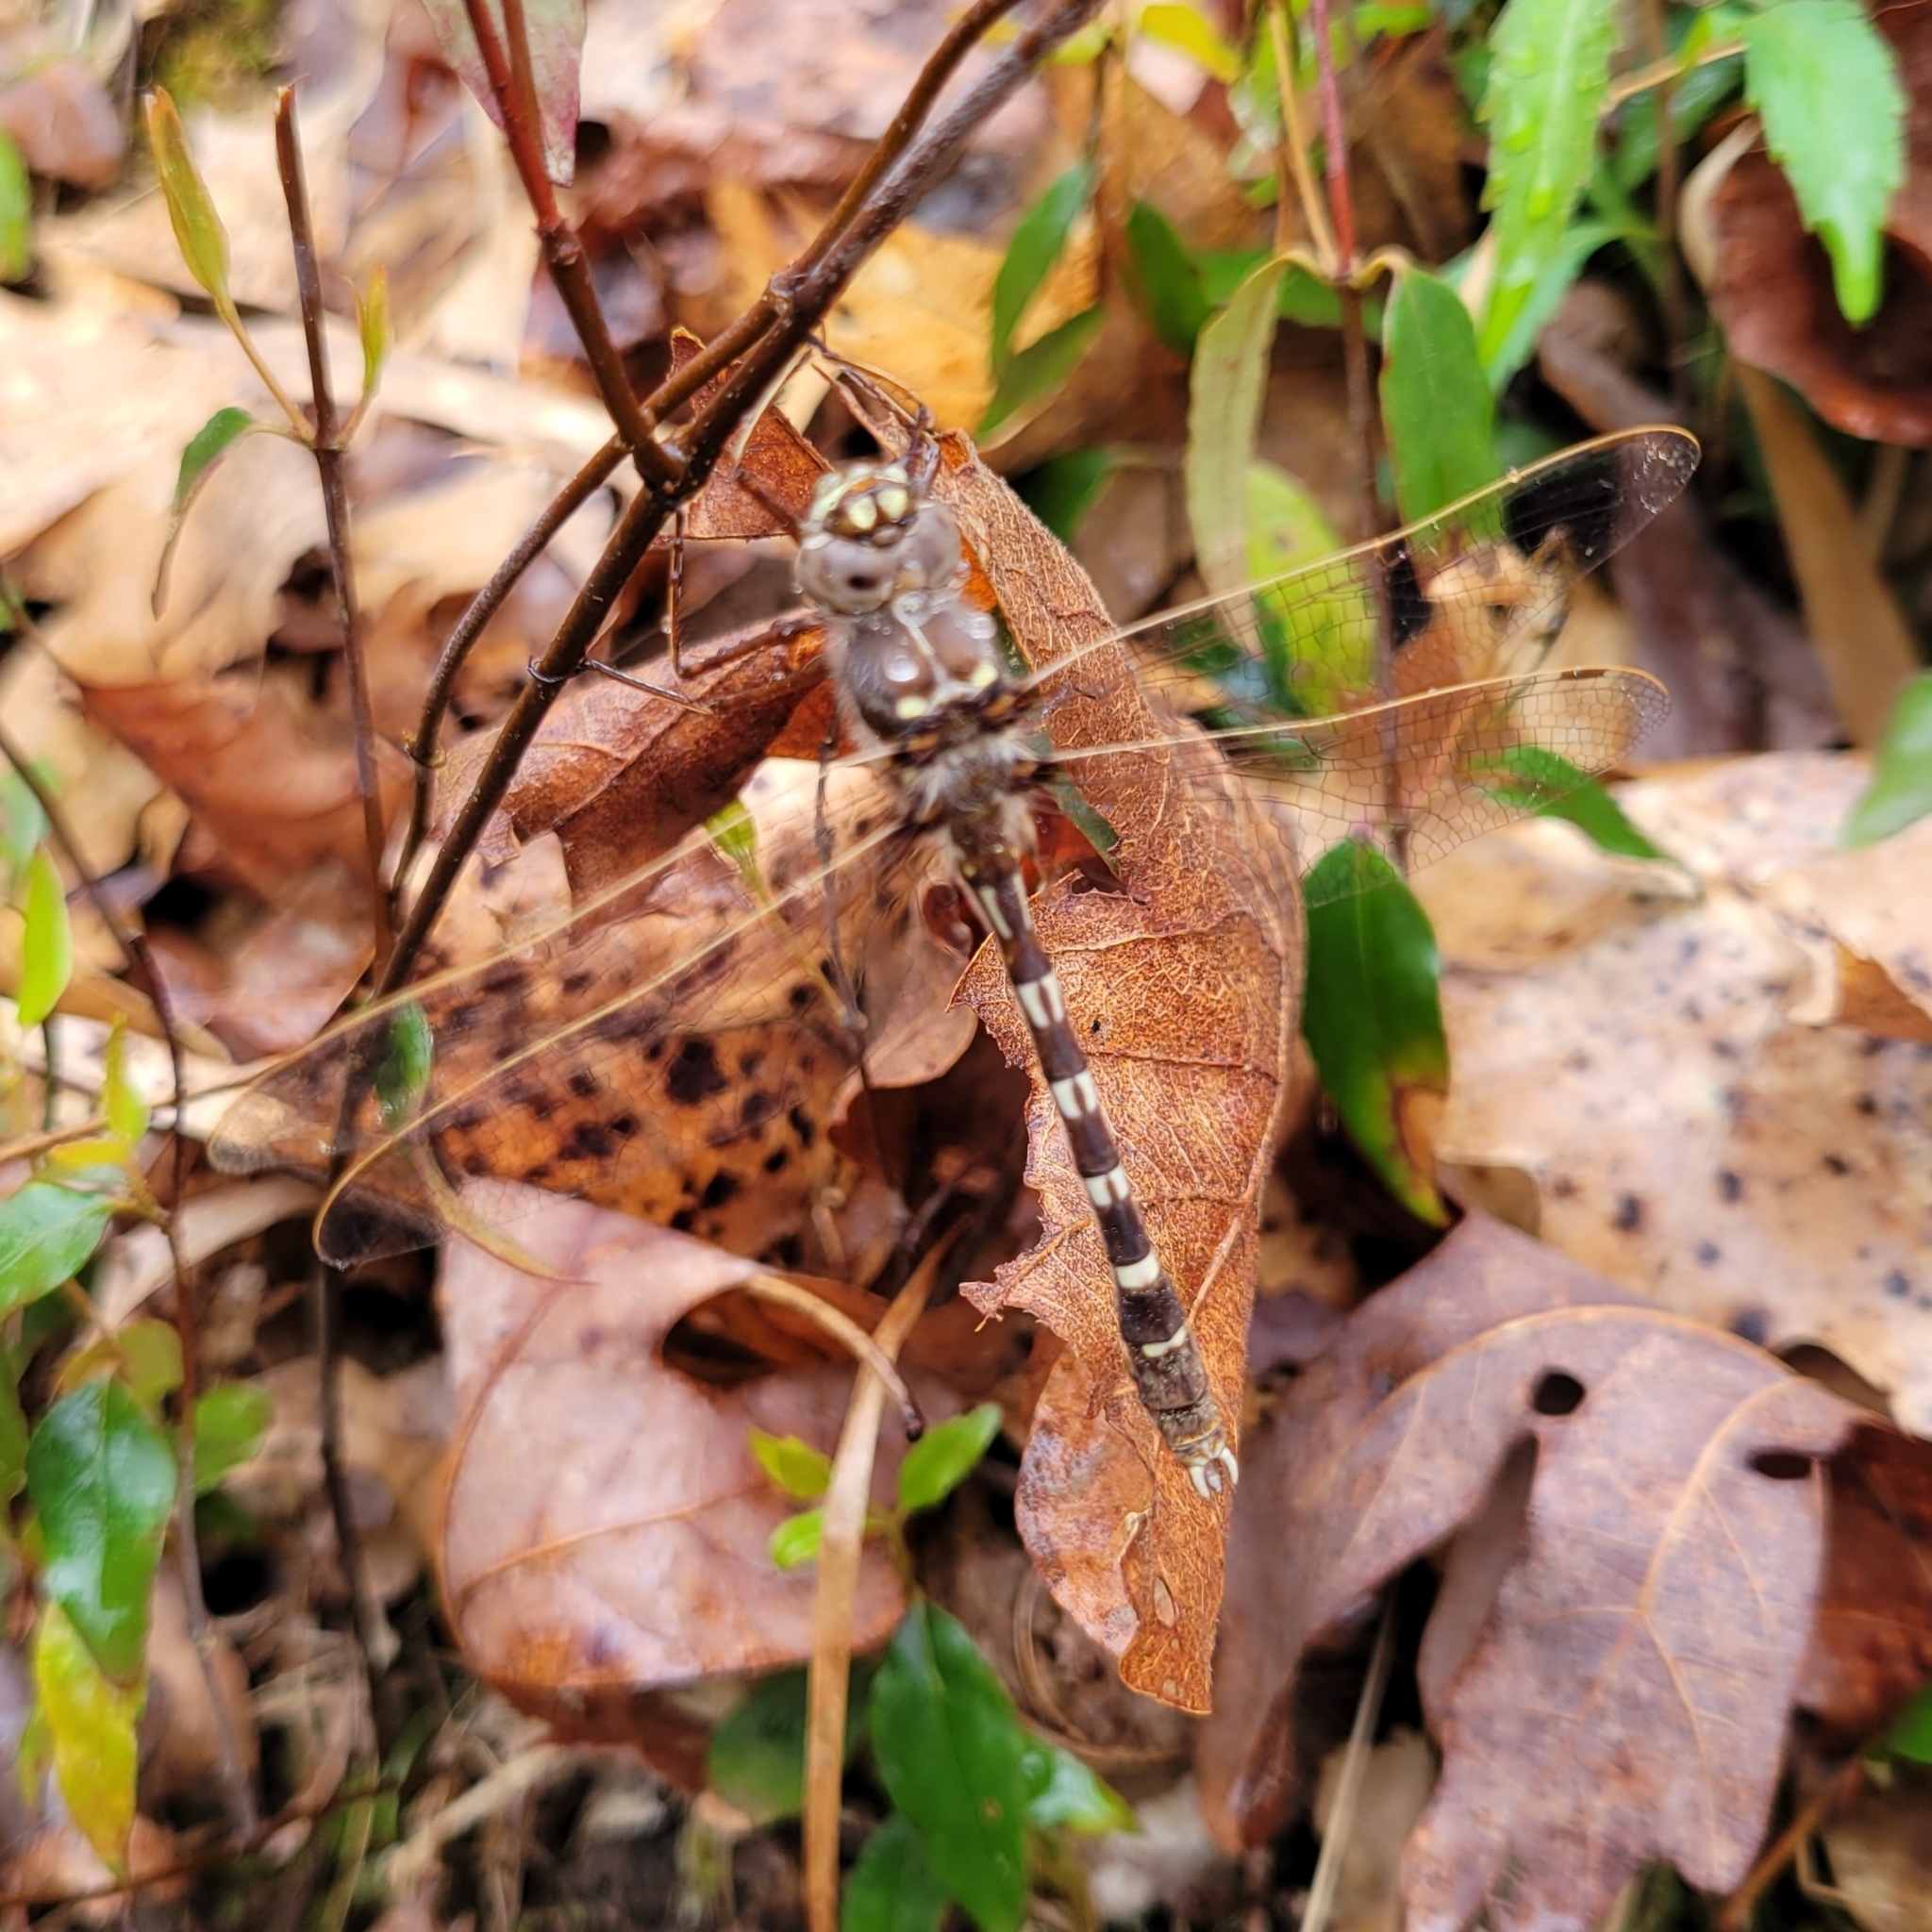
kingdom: Animalia
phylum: Arthropoda
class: Insecta
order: Odonata
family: Macromiidae
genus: Didymops
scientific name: Didymops transversa
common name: Stream cruiser
